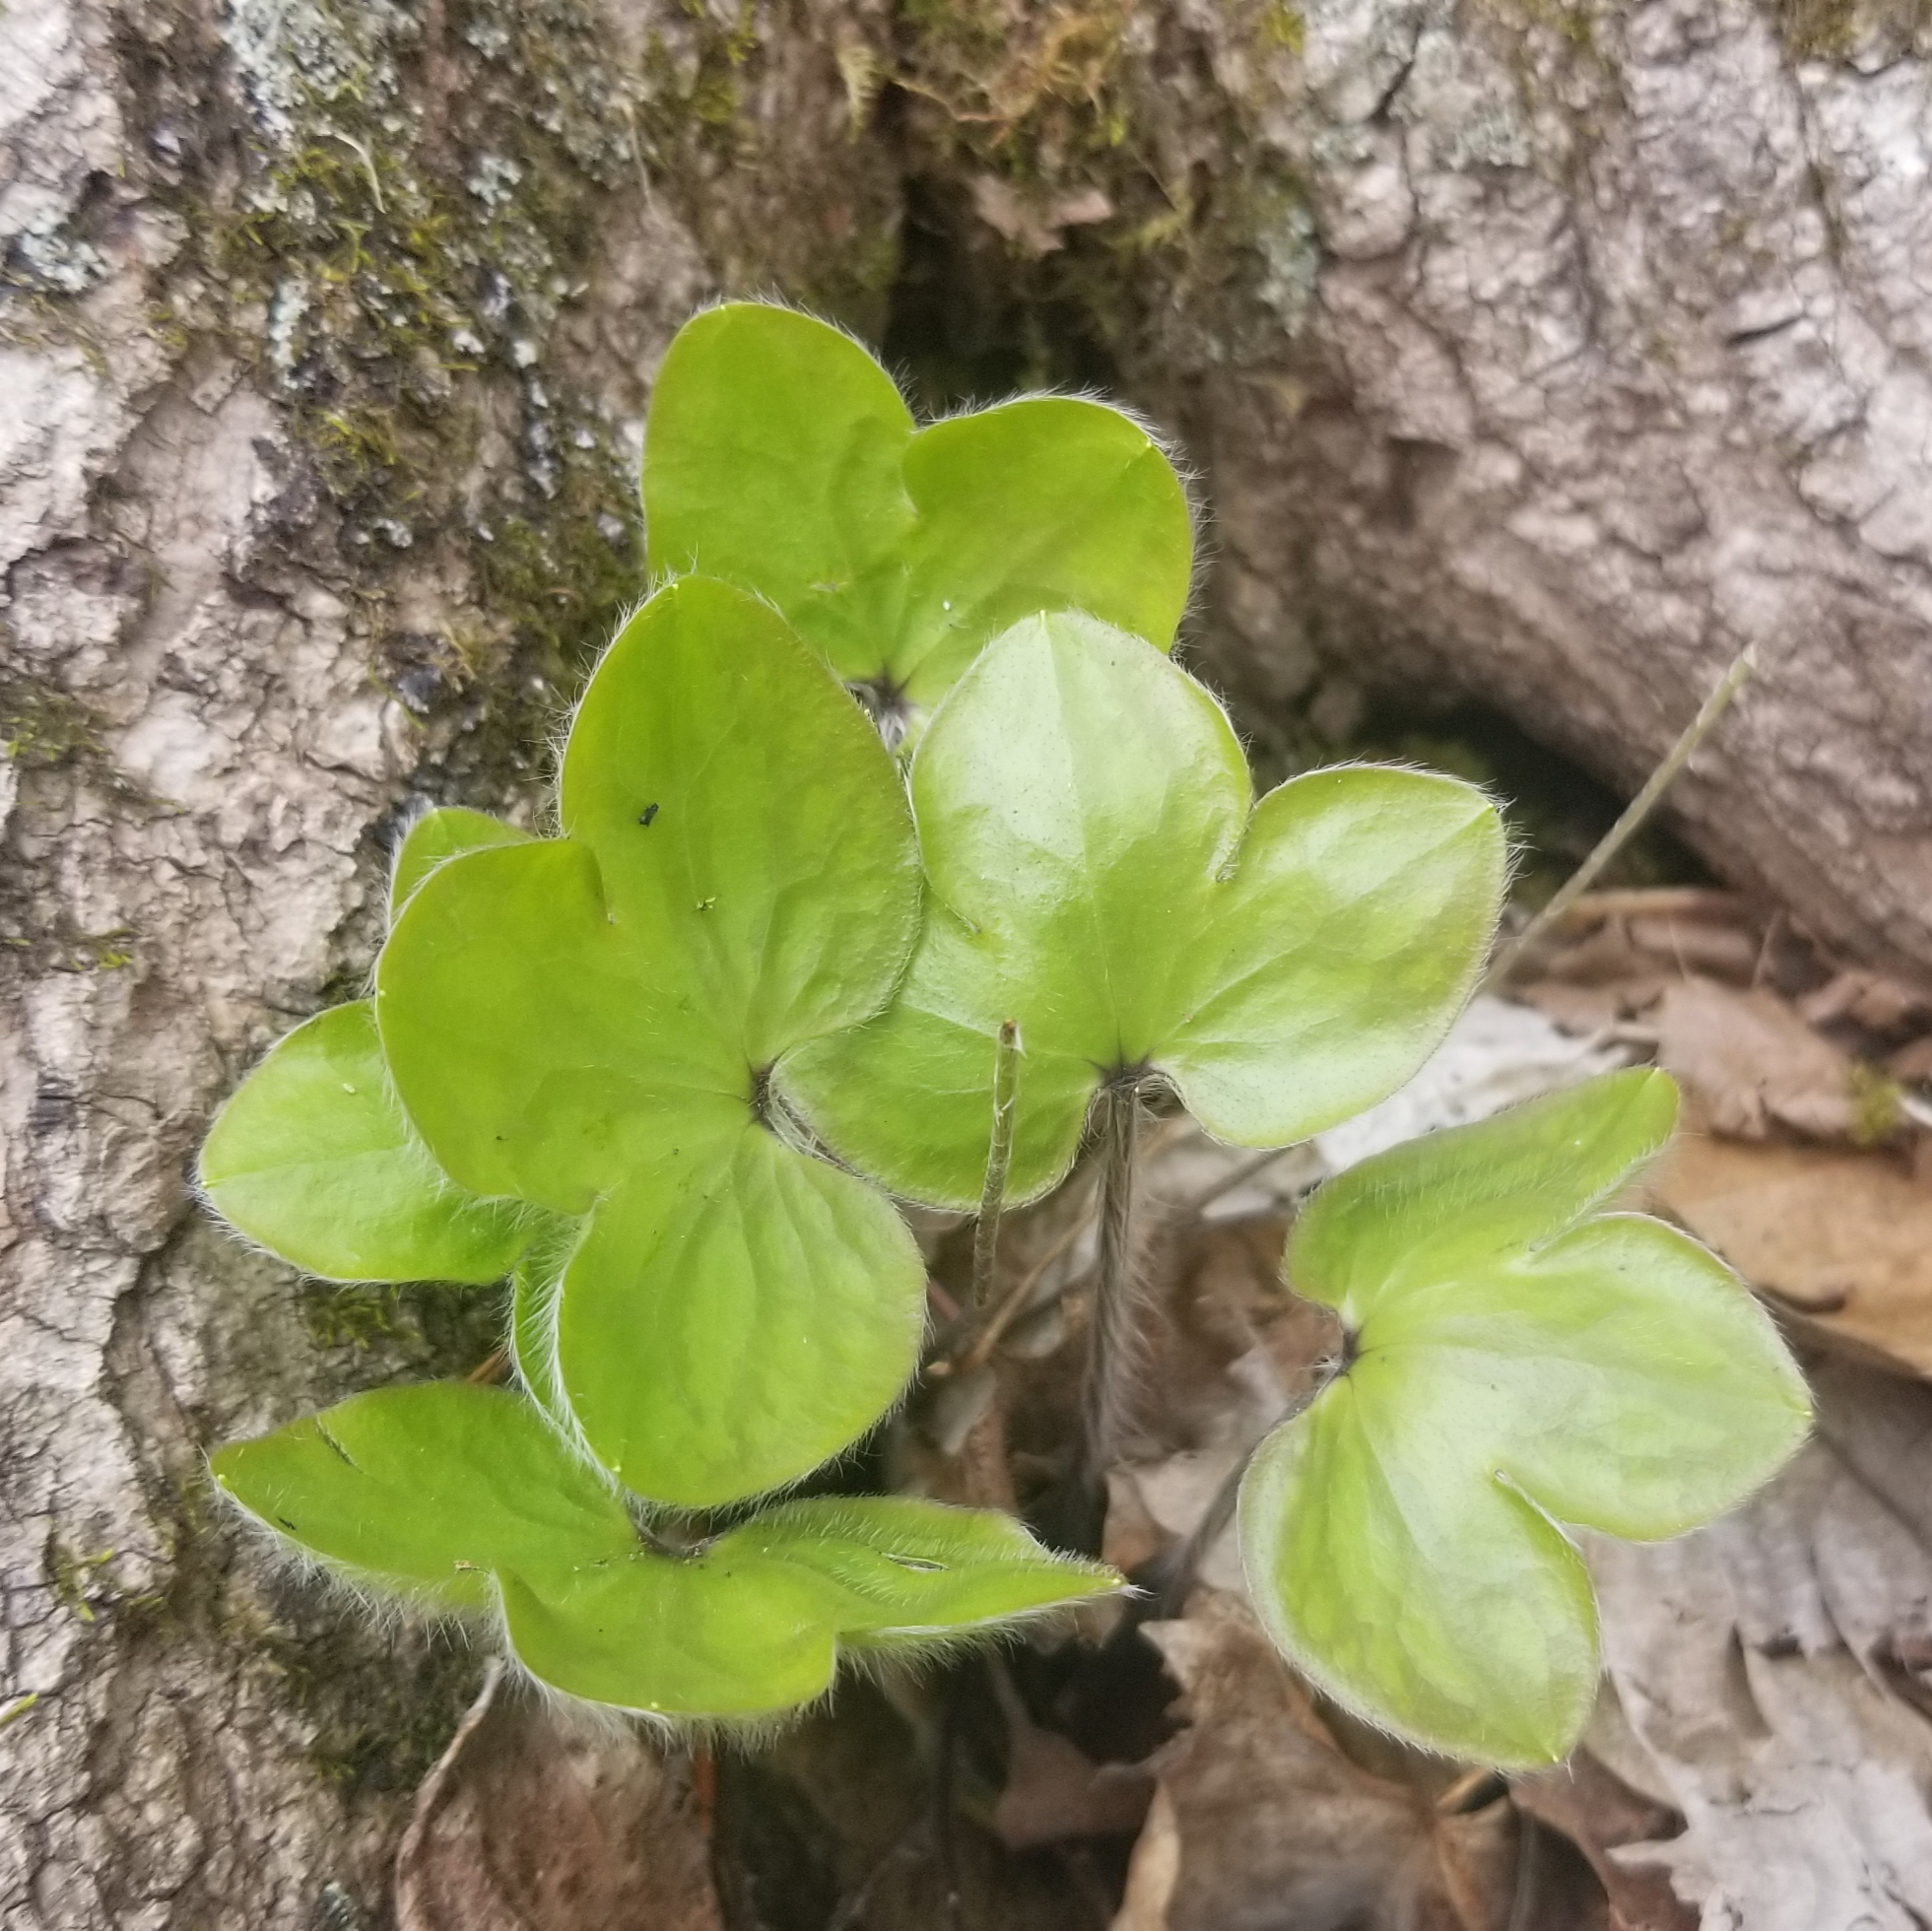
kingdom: Plantae
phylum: Tracheophyta
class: Magnoliopsida
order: Ranunculales
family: Ranunculaceae
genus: Hepatica
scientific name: Hepatica americana
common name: American hepatica
